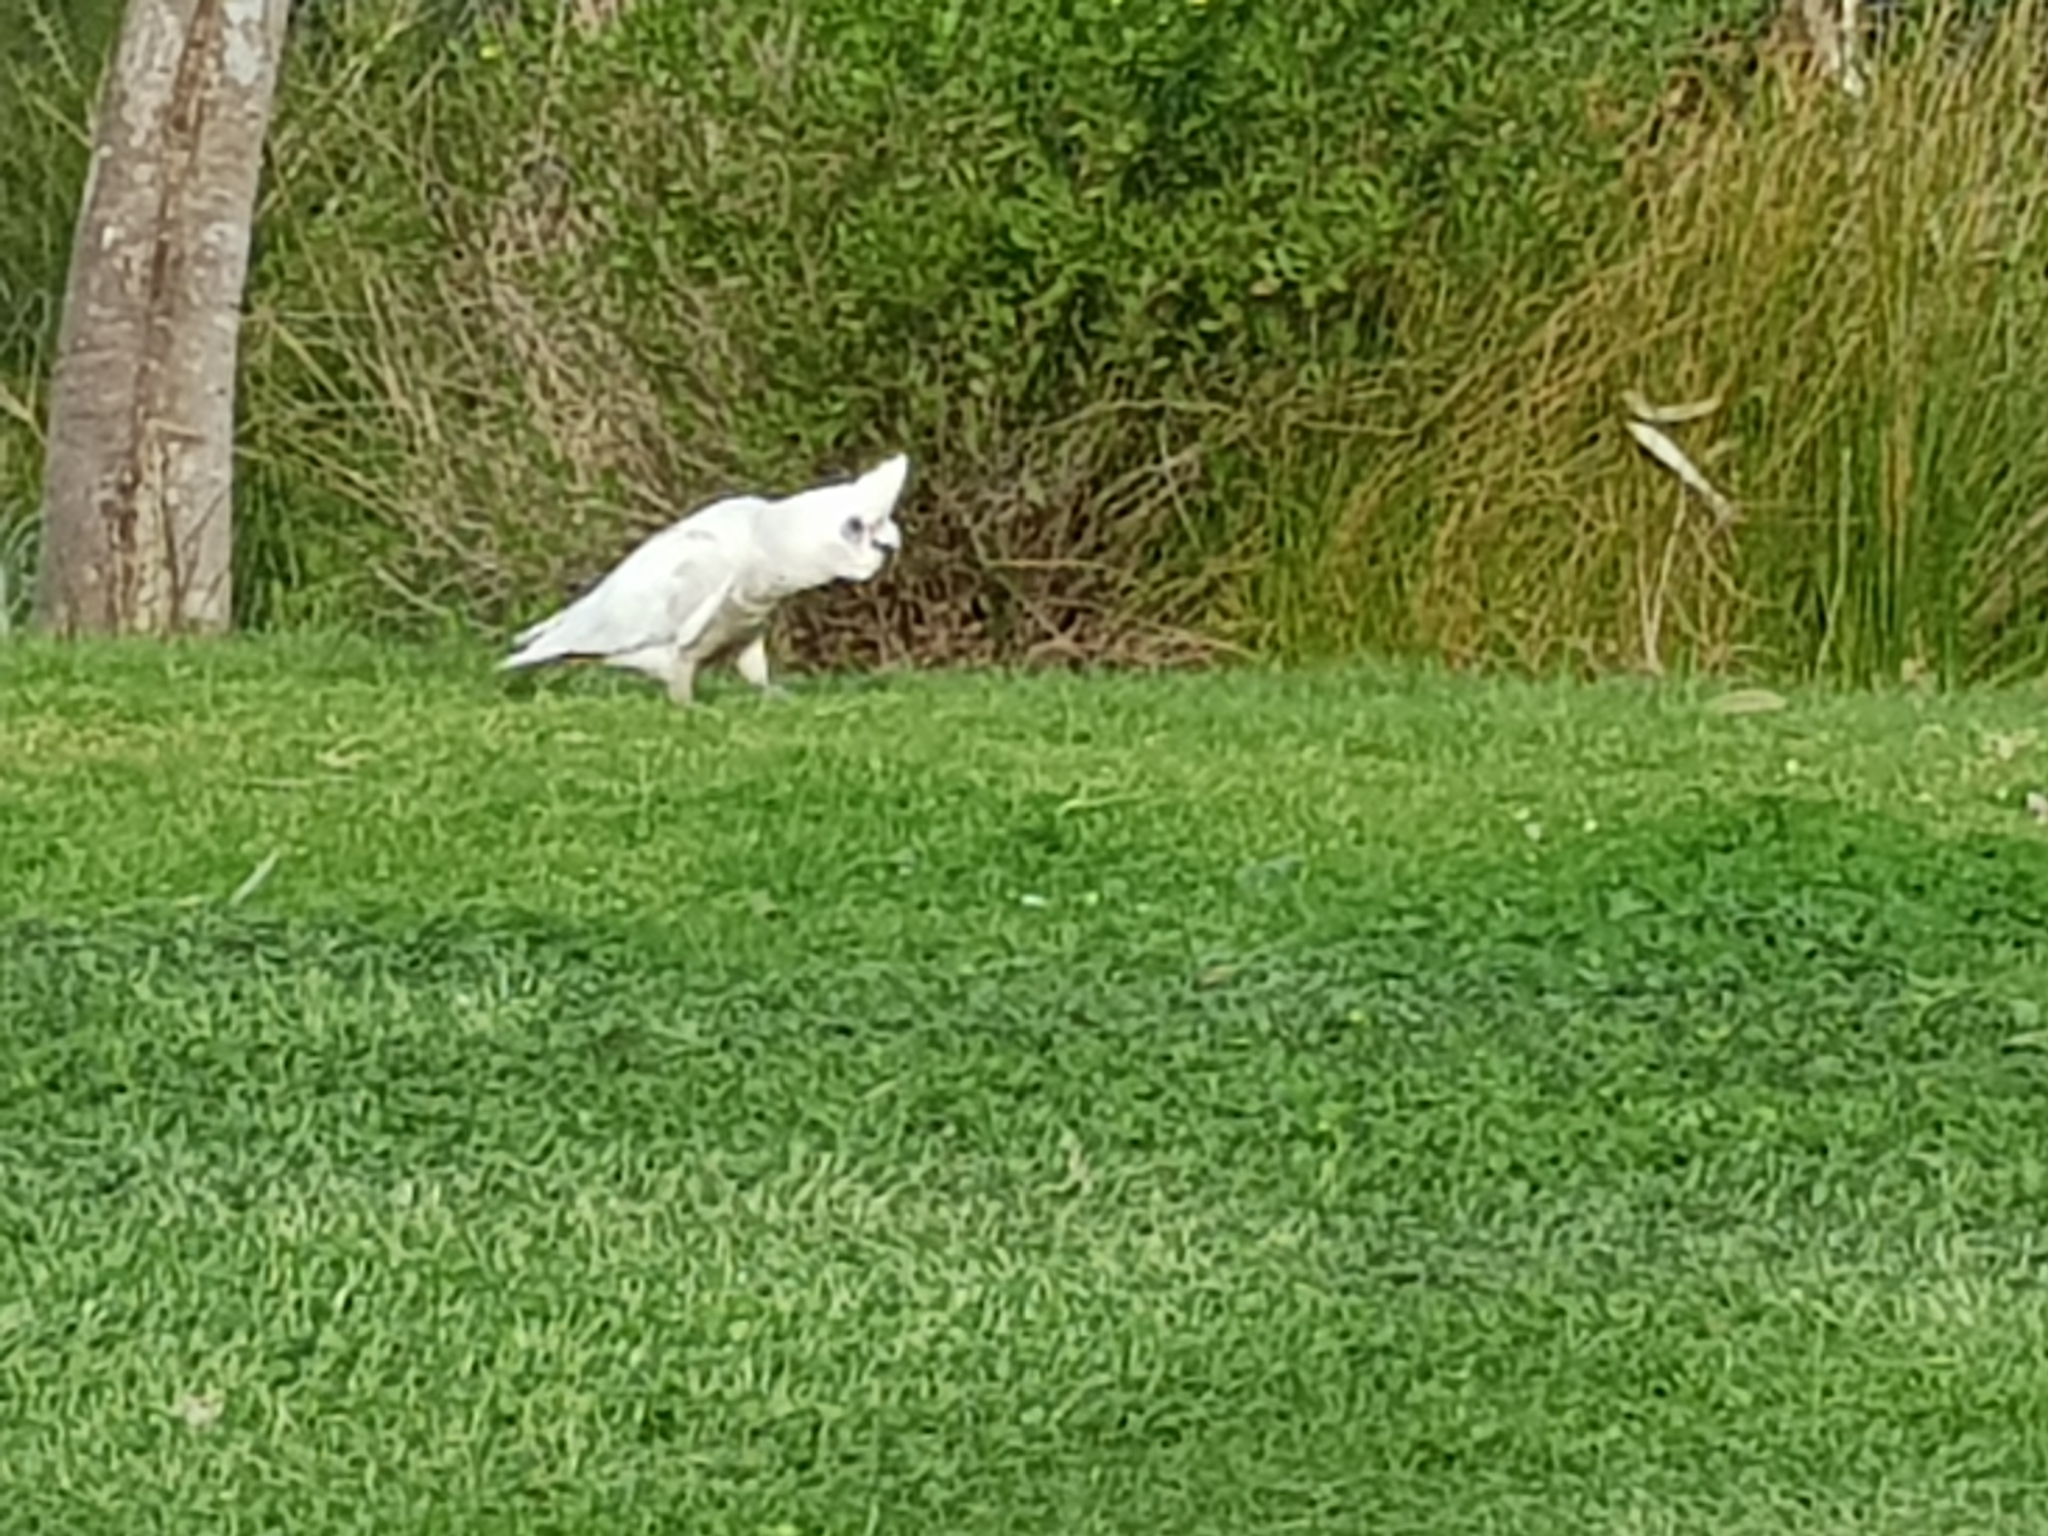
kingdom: Animalia
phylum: Chordata
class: Aves
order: Psittaciformes
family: Psittacidae
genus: Cacatua
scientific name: Cacatua sanguinea
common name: Little corella
